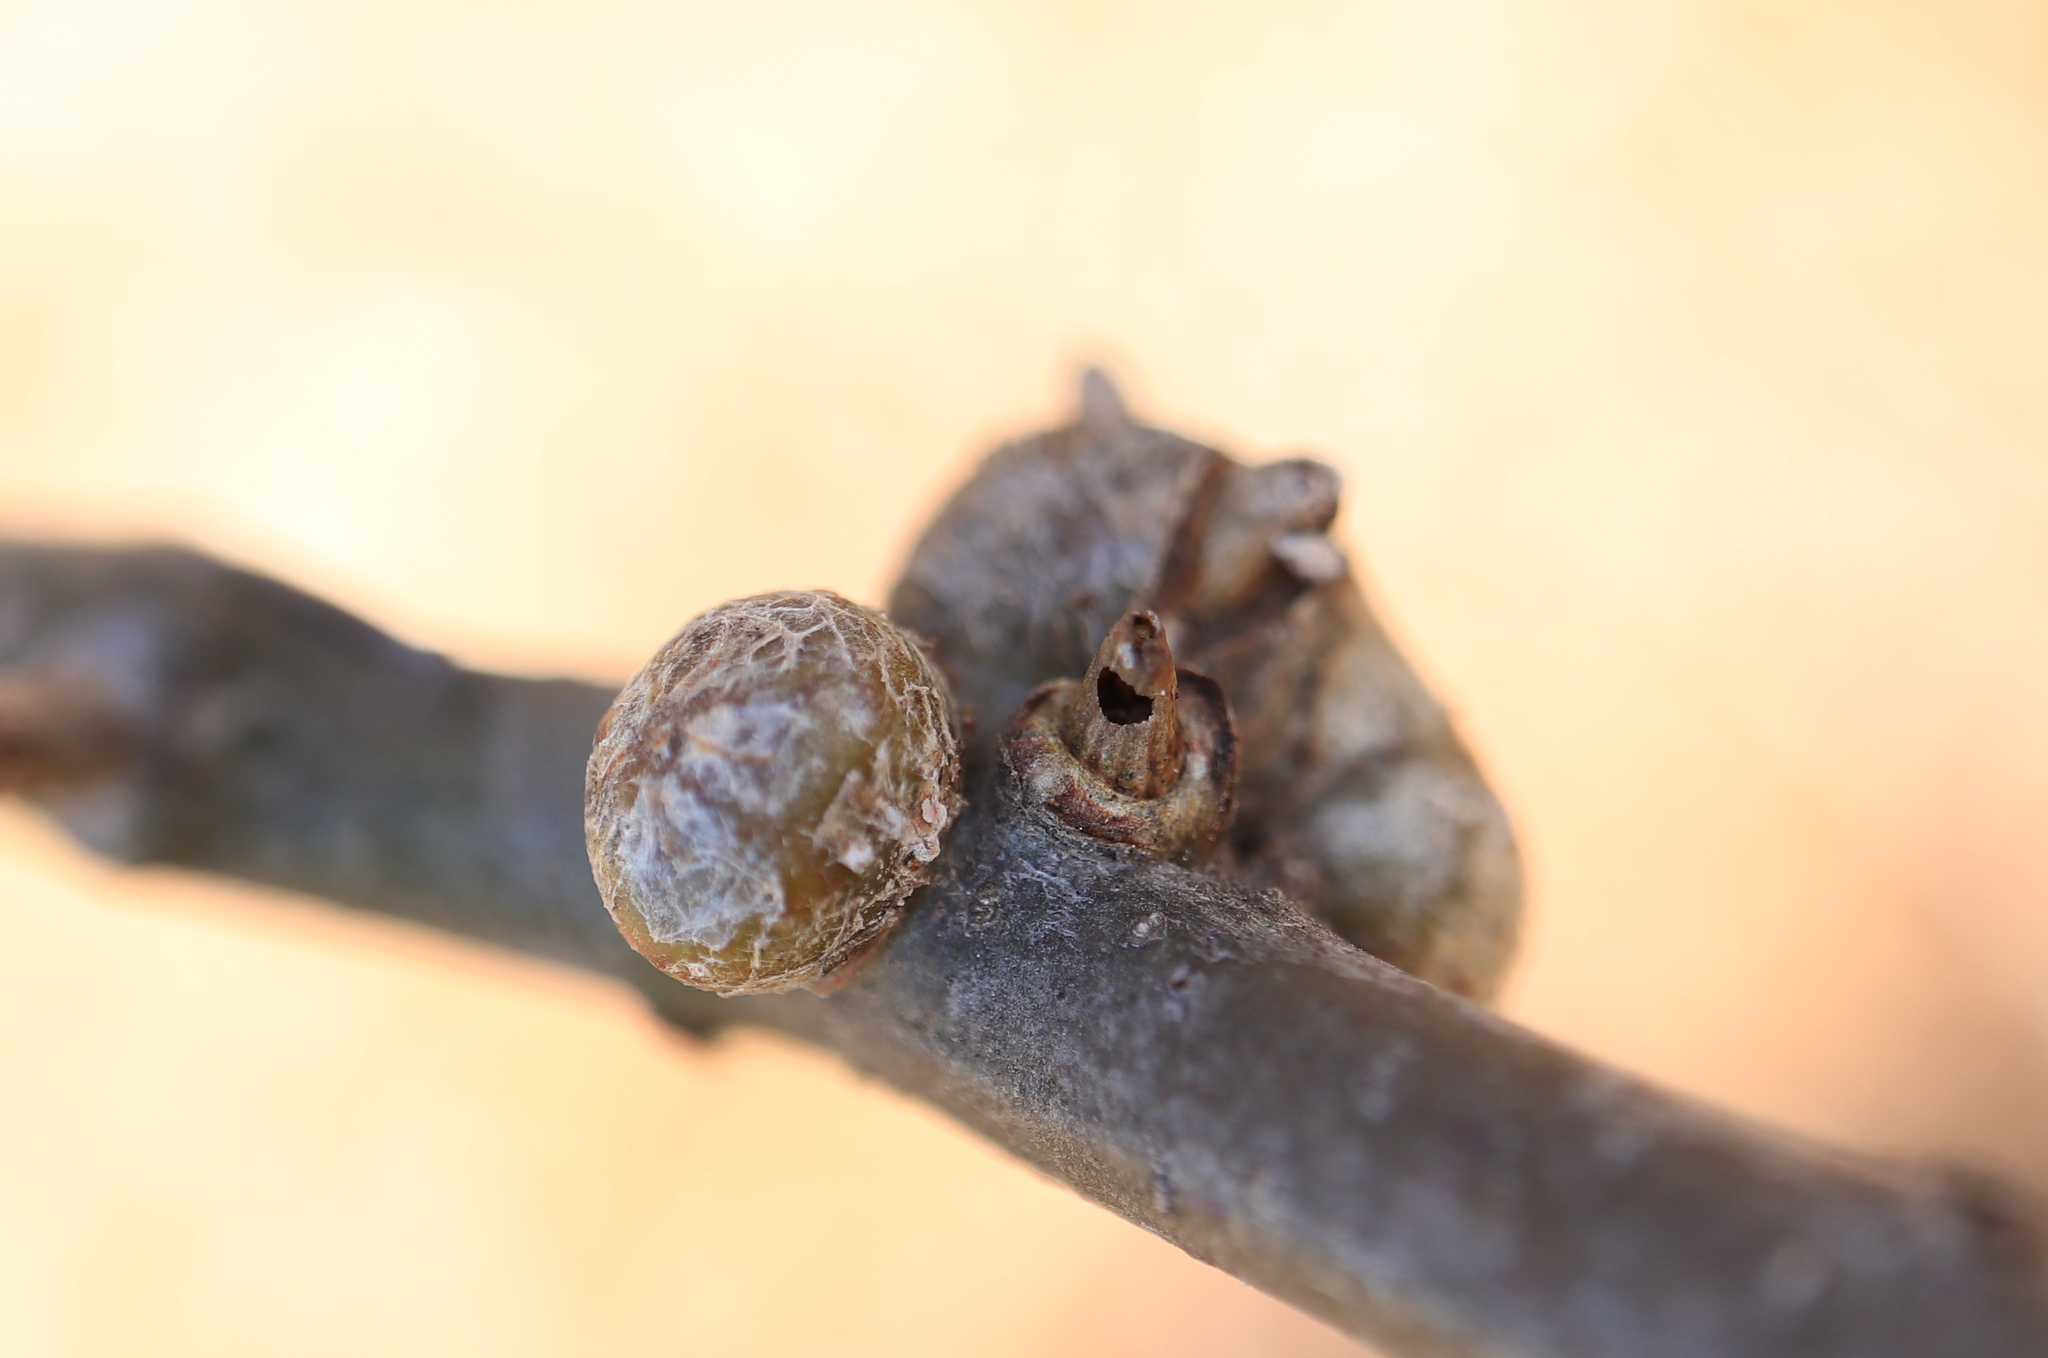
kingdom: Animalia
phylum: Arthropoda
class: Insecta
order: Hymenoptera
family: Cynipidae
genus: Callirhytis
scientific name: Callirhytis
